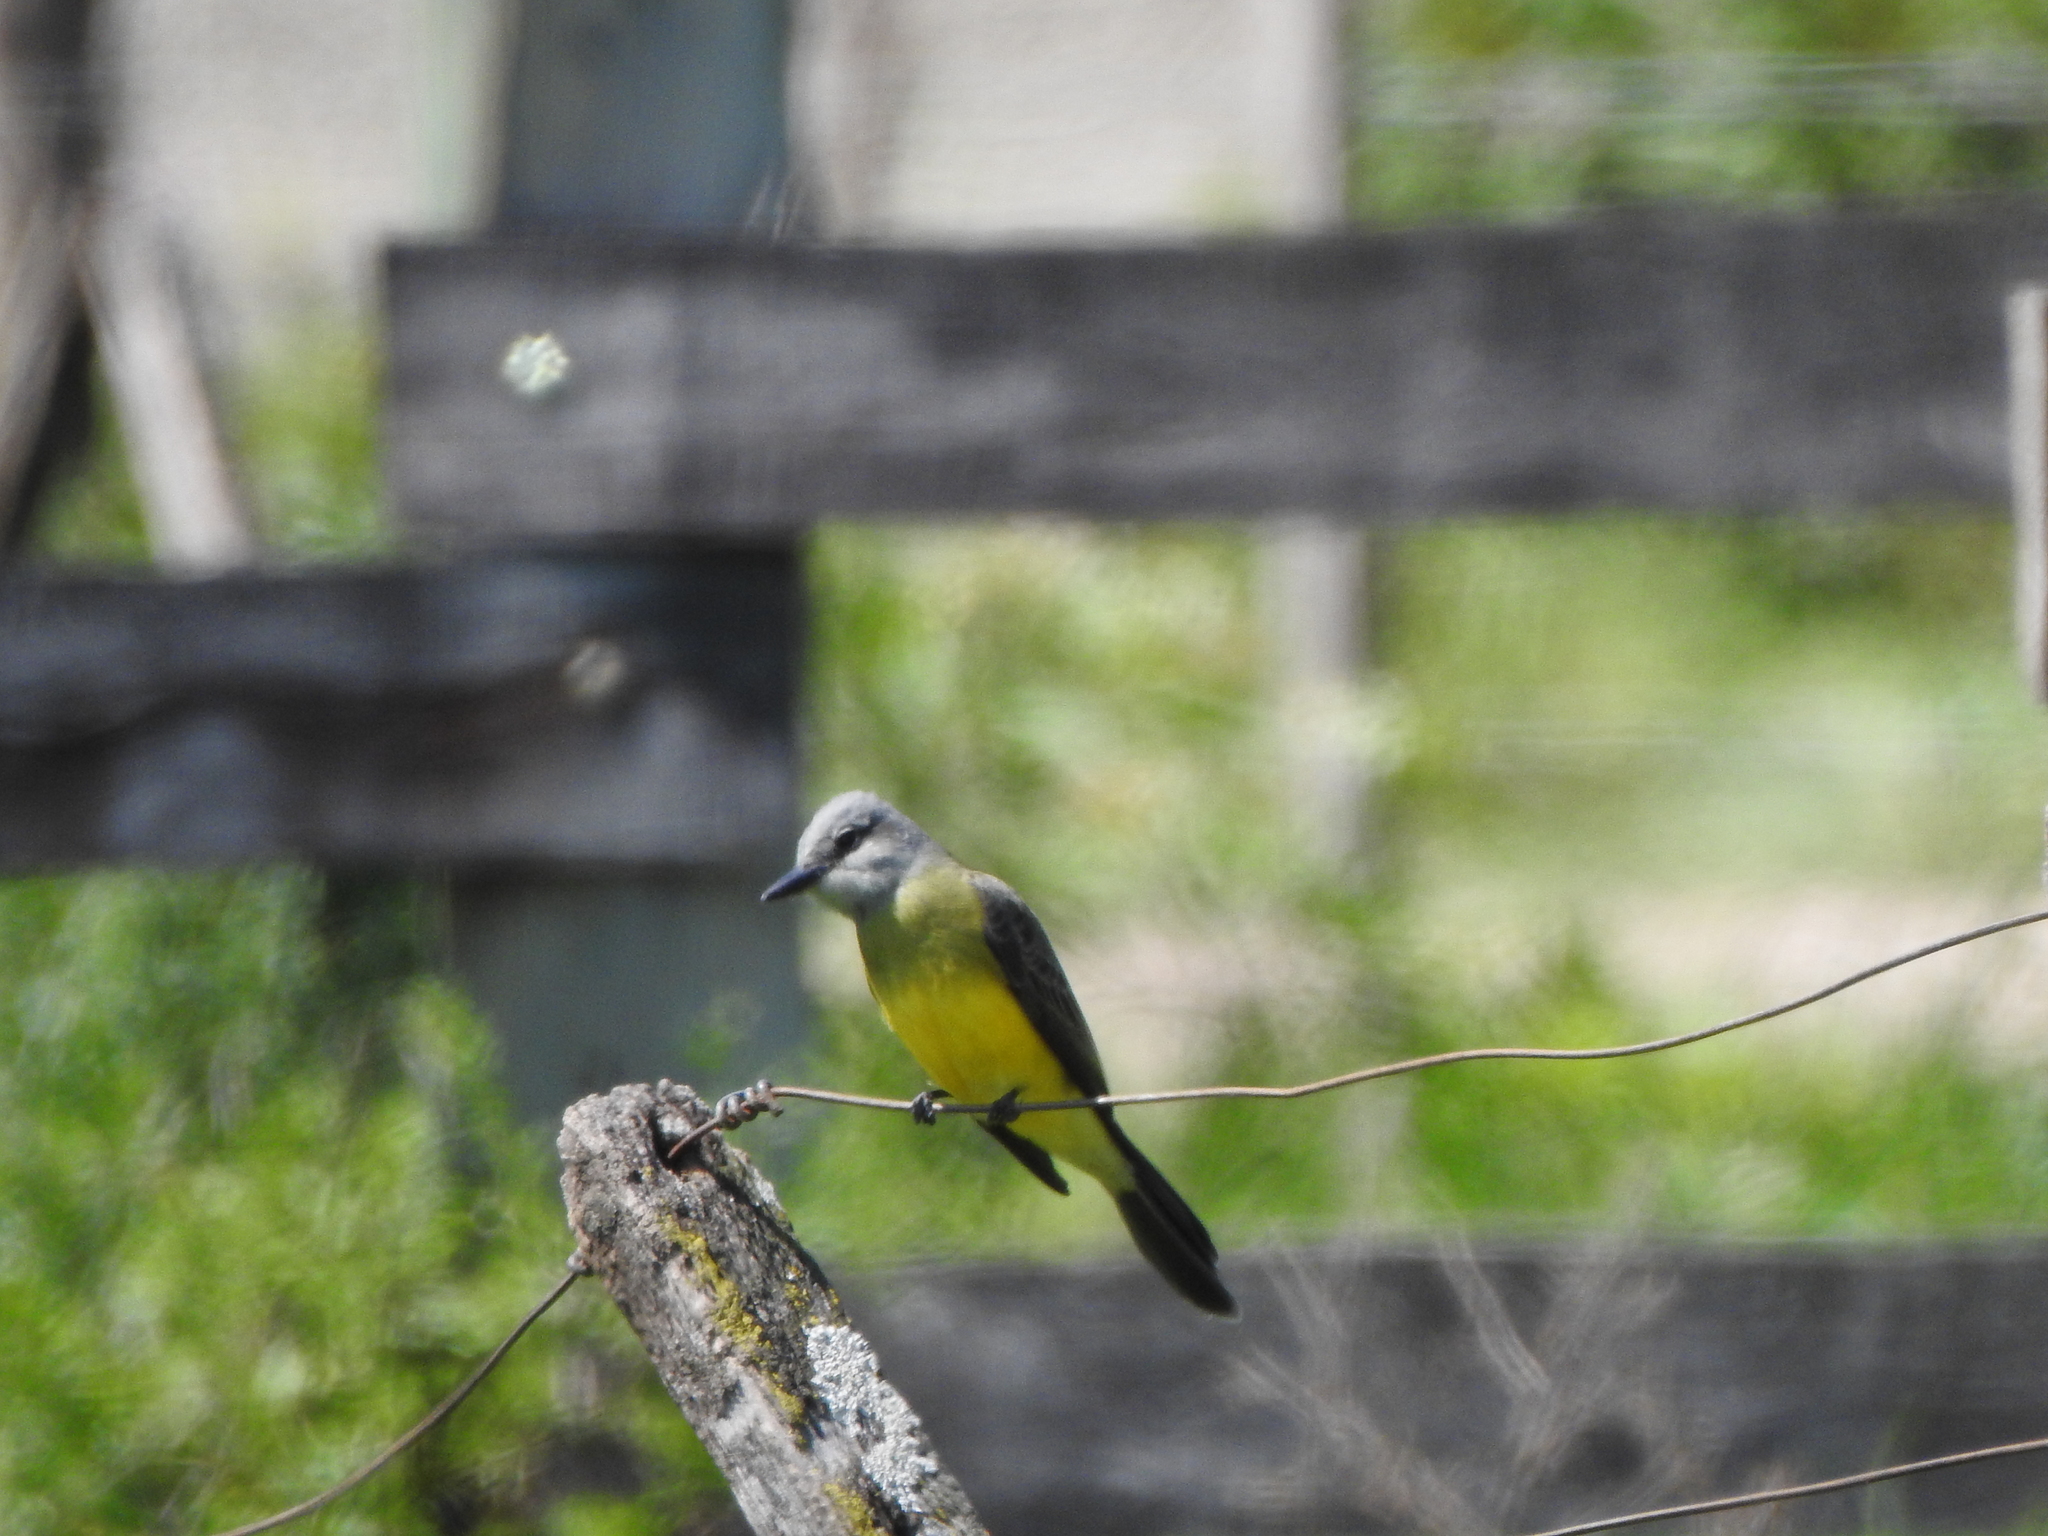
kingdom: Animalia
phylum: Chordata
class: Aves
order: Passeriformes
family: Tyrannidae
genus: Tyrannus
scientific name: Tyrannus melancholicus
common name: Tropical kingbird
